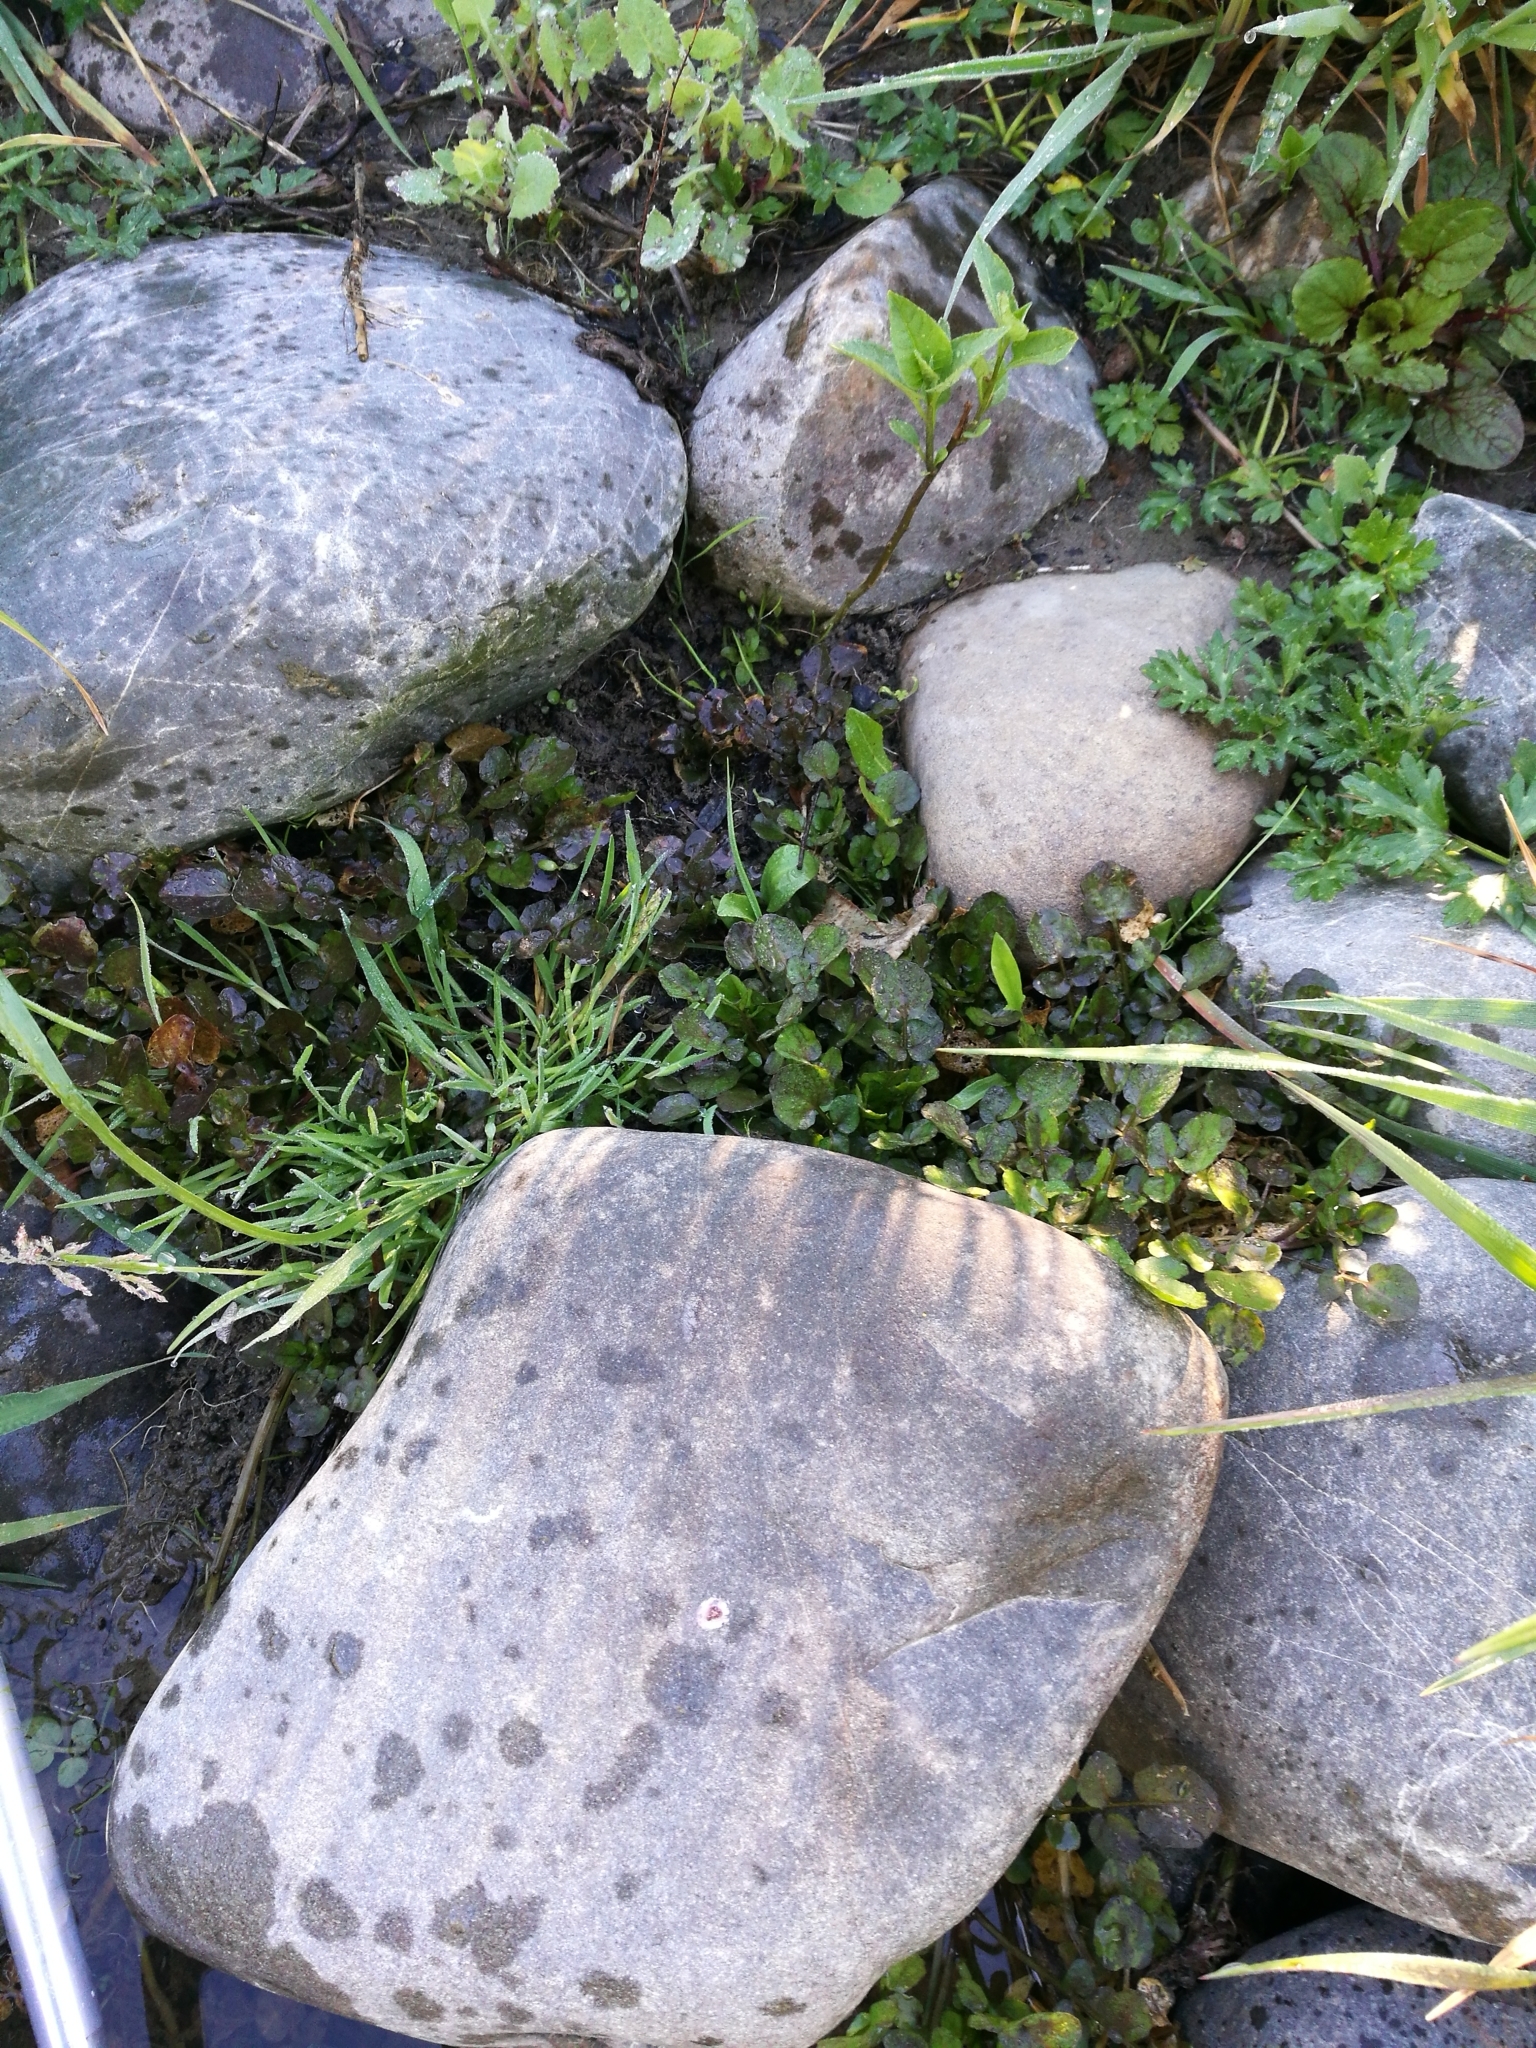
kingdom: Plantae
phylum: Tracheophyta
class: Magnoliopsida
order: Brassicales
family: Brassicaceae
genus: Nasturtium
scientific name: Nasturtium officinale
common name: Watercress
